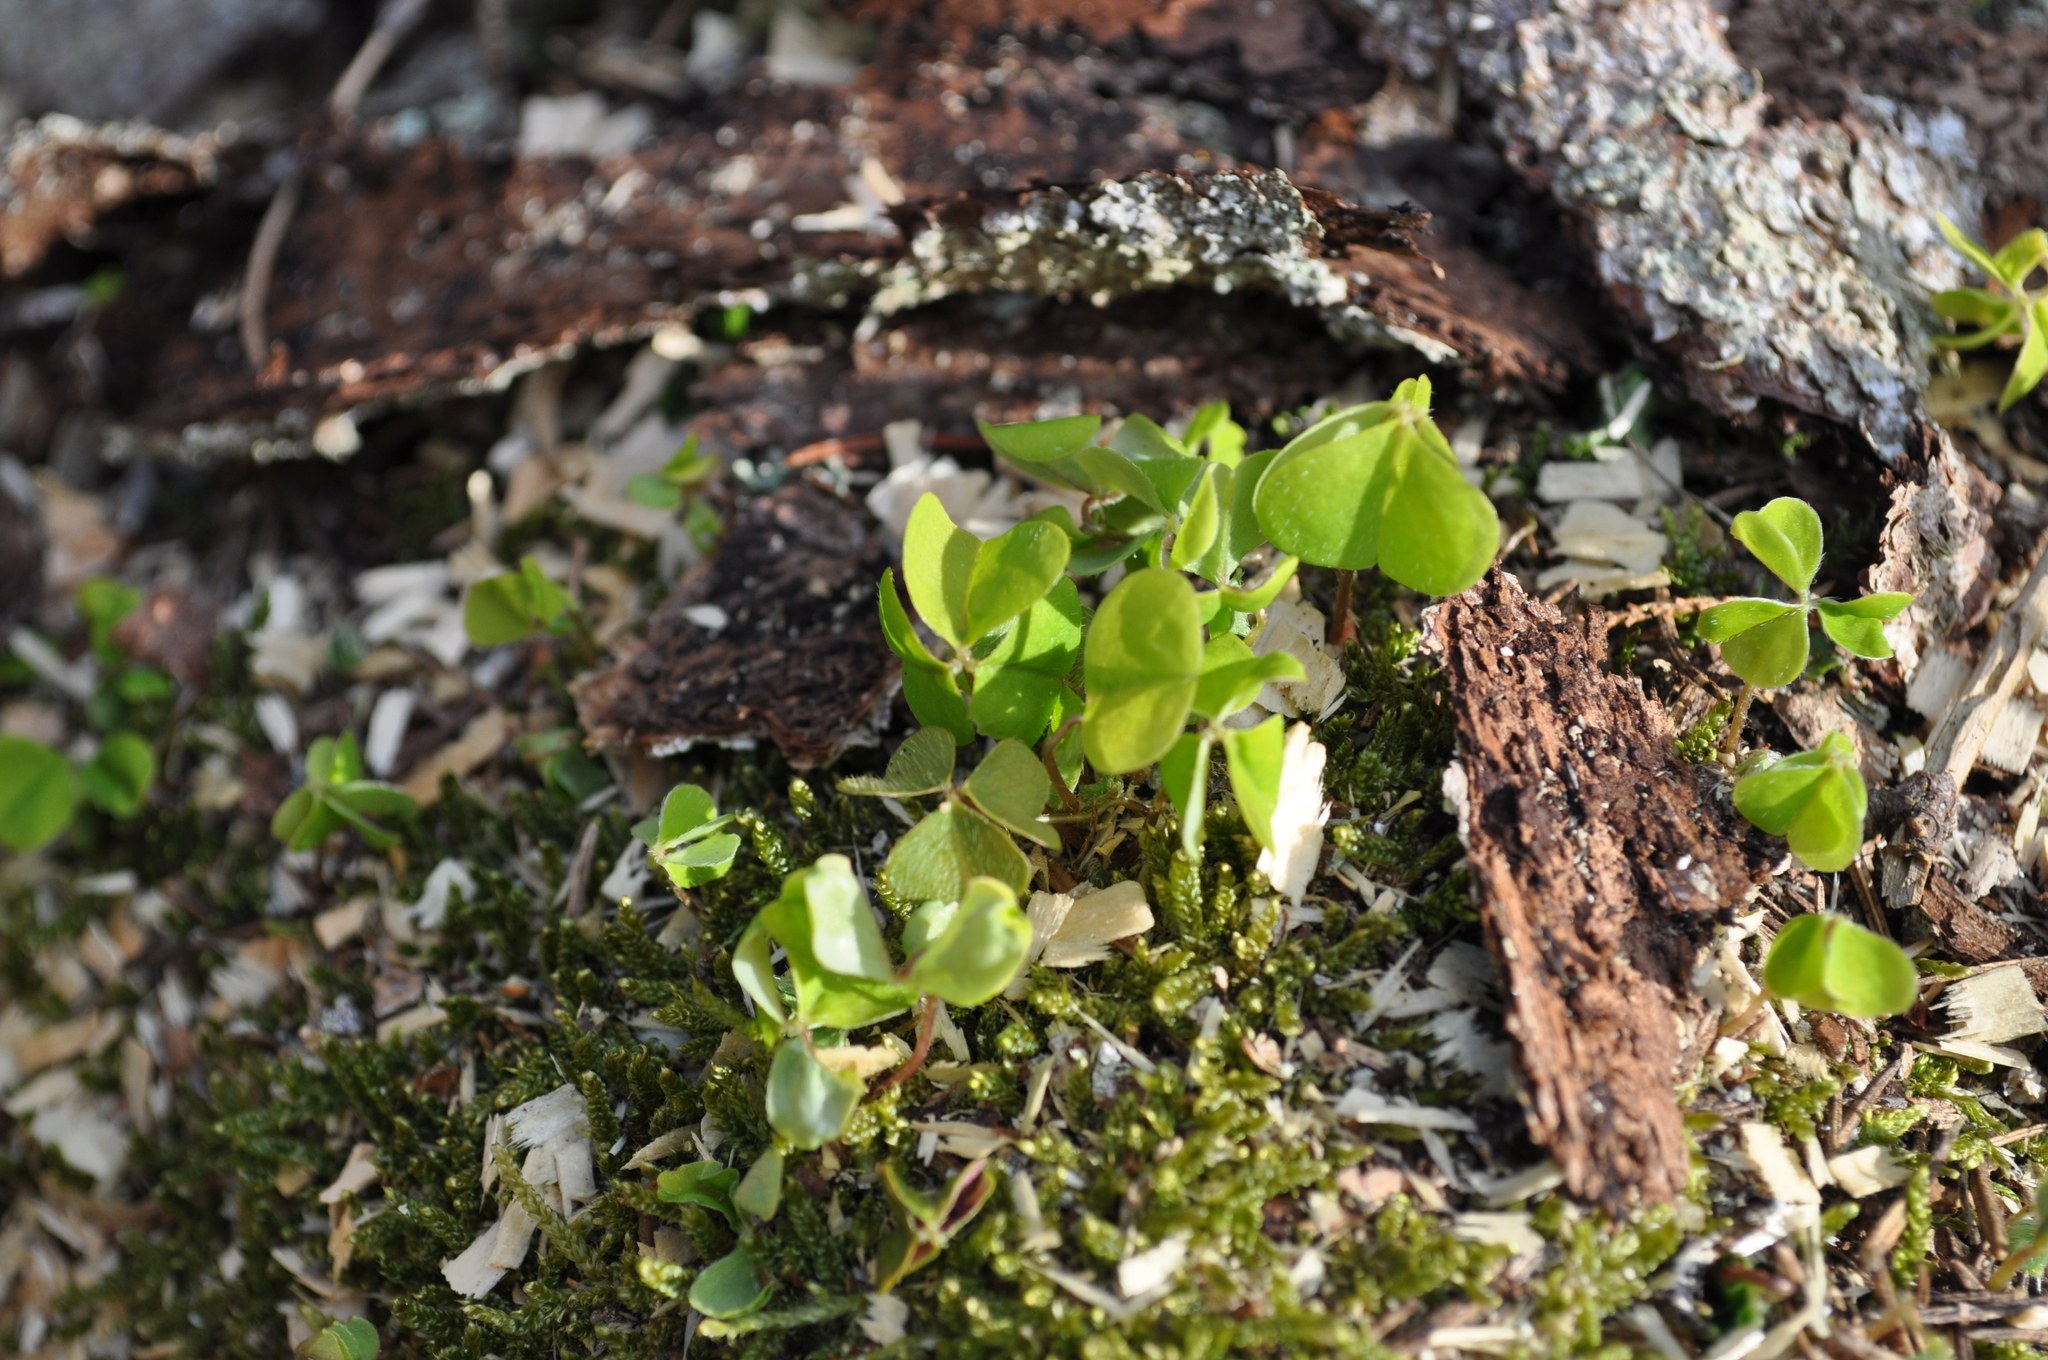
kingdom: Plantae
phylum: Tracheophyta
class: Magnoliopsida
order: Oxalidales
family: Oxalidaceae
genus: Oxalis
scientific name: Oxalis acetosella
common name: Wood-sorrel
